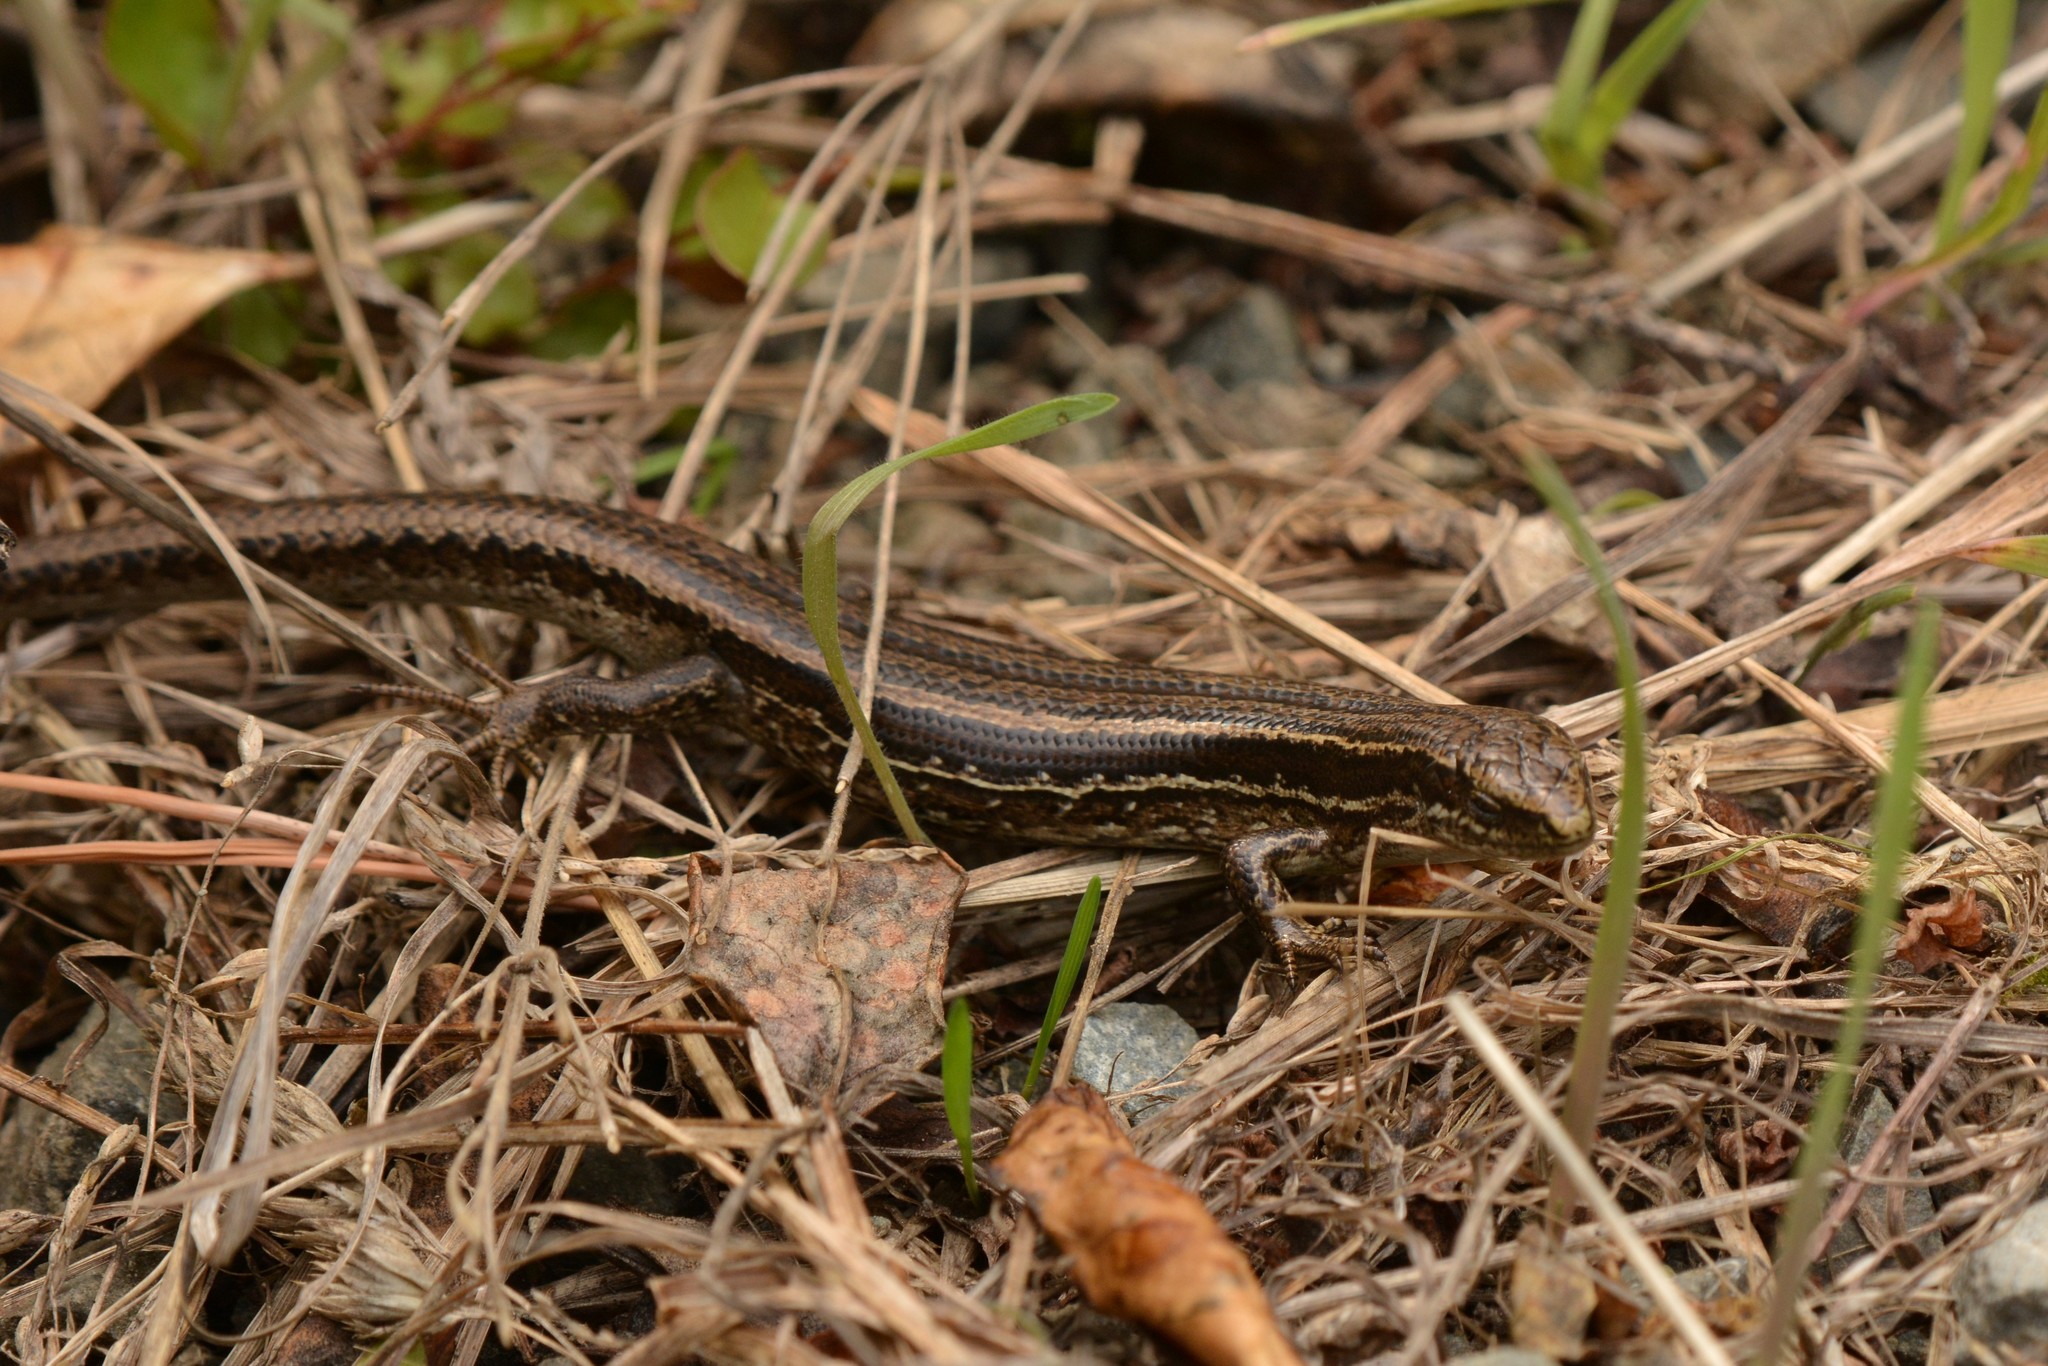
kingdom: Animalia
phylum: Chordata
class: Squamata
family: Scincidae
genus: Oligosoma
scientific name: Oligosoma polychroma
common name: Common new zealand skink
